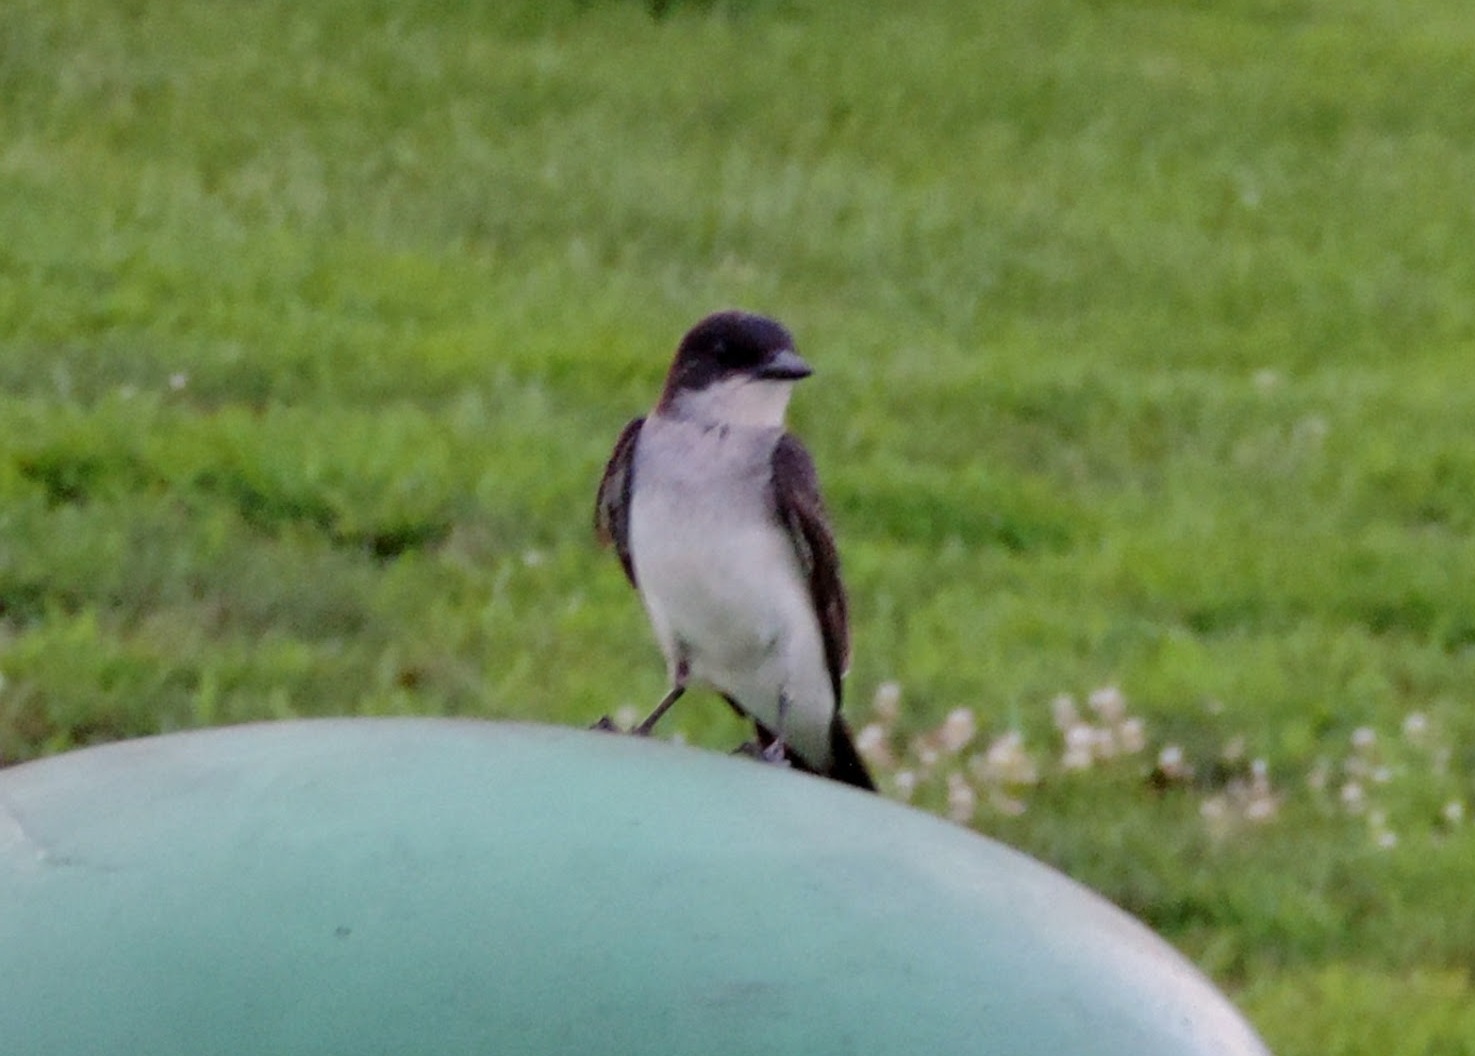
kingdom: Animalia
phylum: Chordata
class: Aves
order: Passeriformes
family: Tyrannidae
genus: Tyrannus
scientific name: Tyrannus tyrannus
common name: Eastern kingbird
